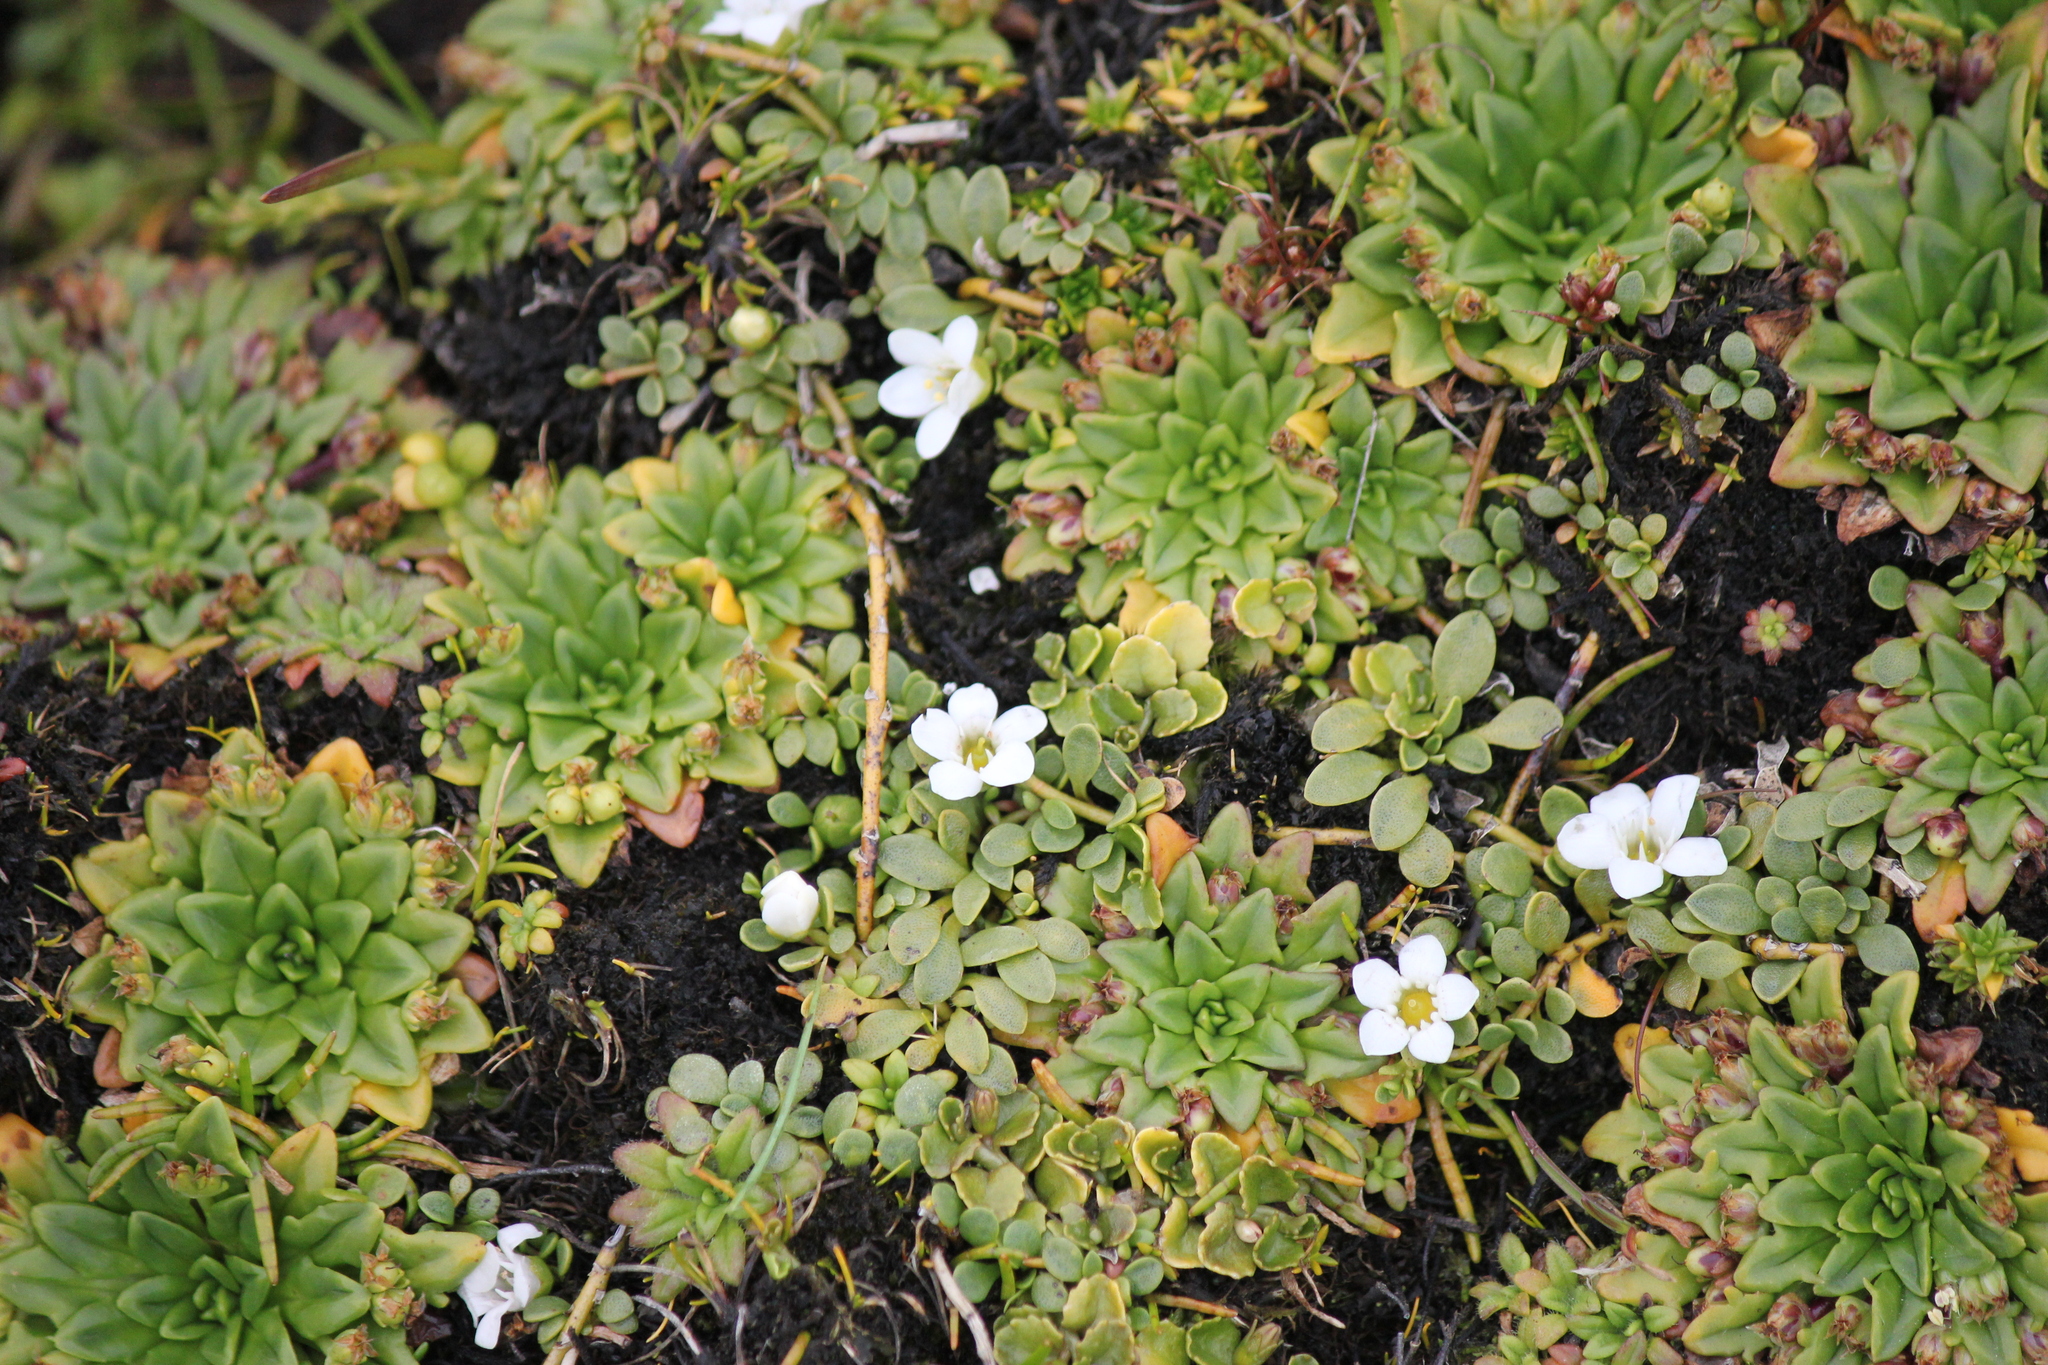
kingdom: Plantae
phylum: Tracheophyta
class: Magnoliopsida
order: Ericales
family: Primulaceae
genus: Samolus
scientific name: Samolus repens
